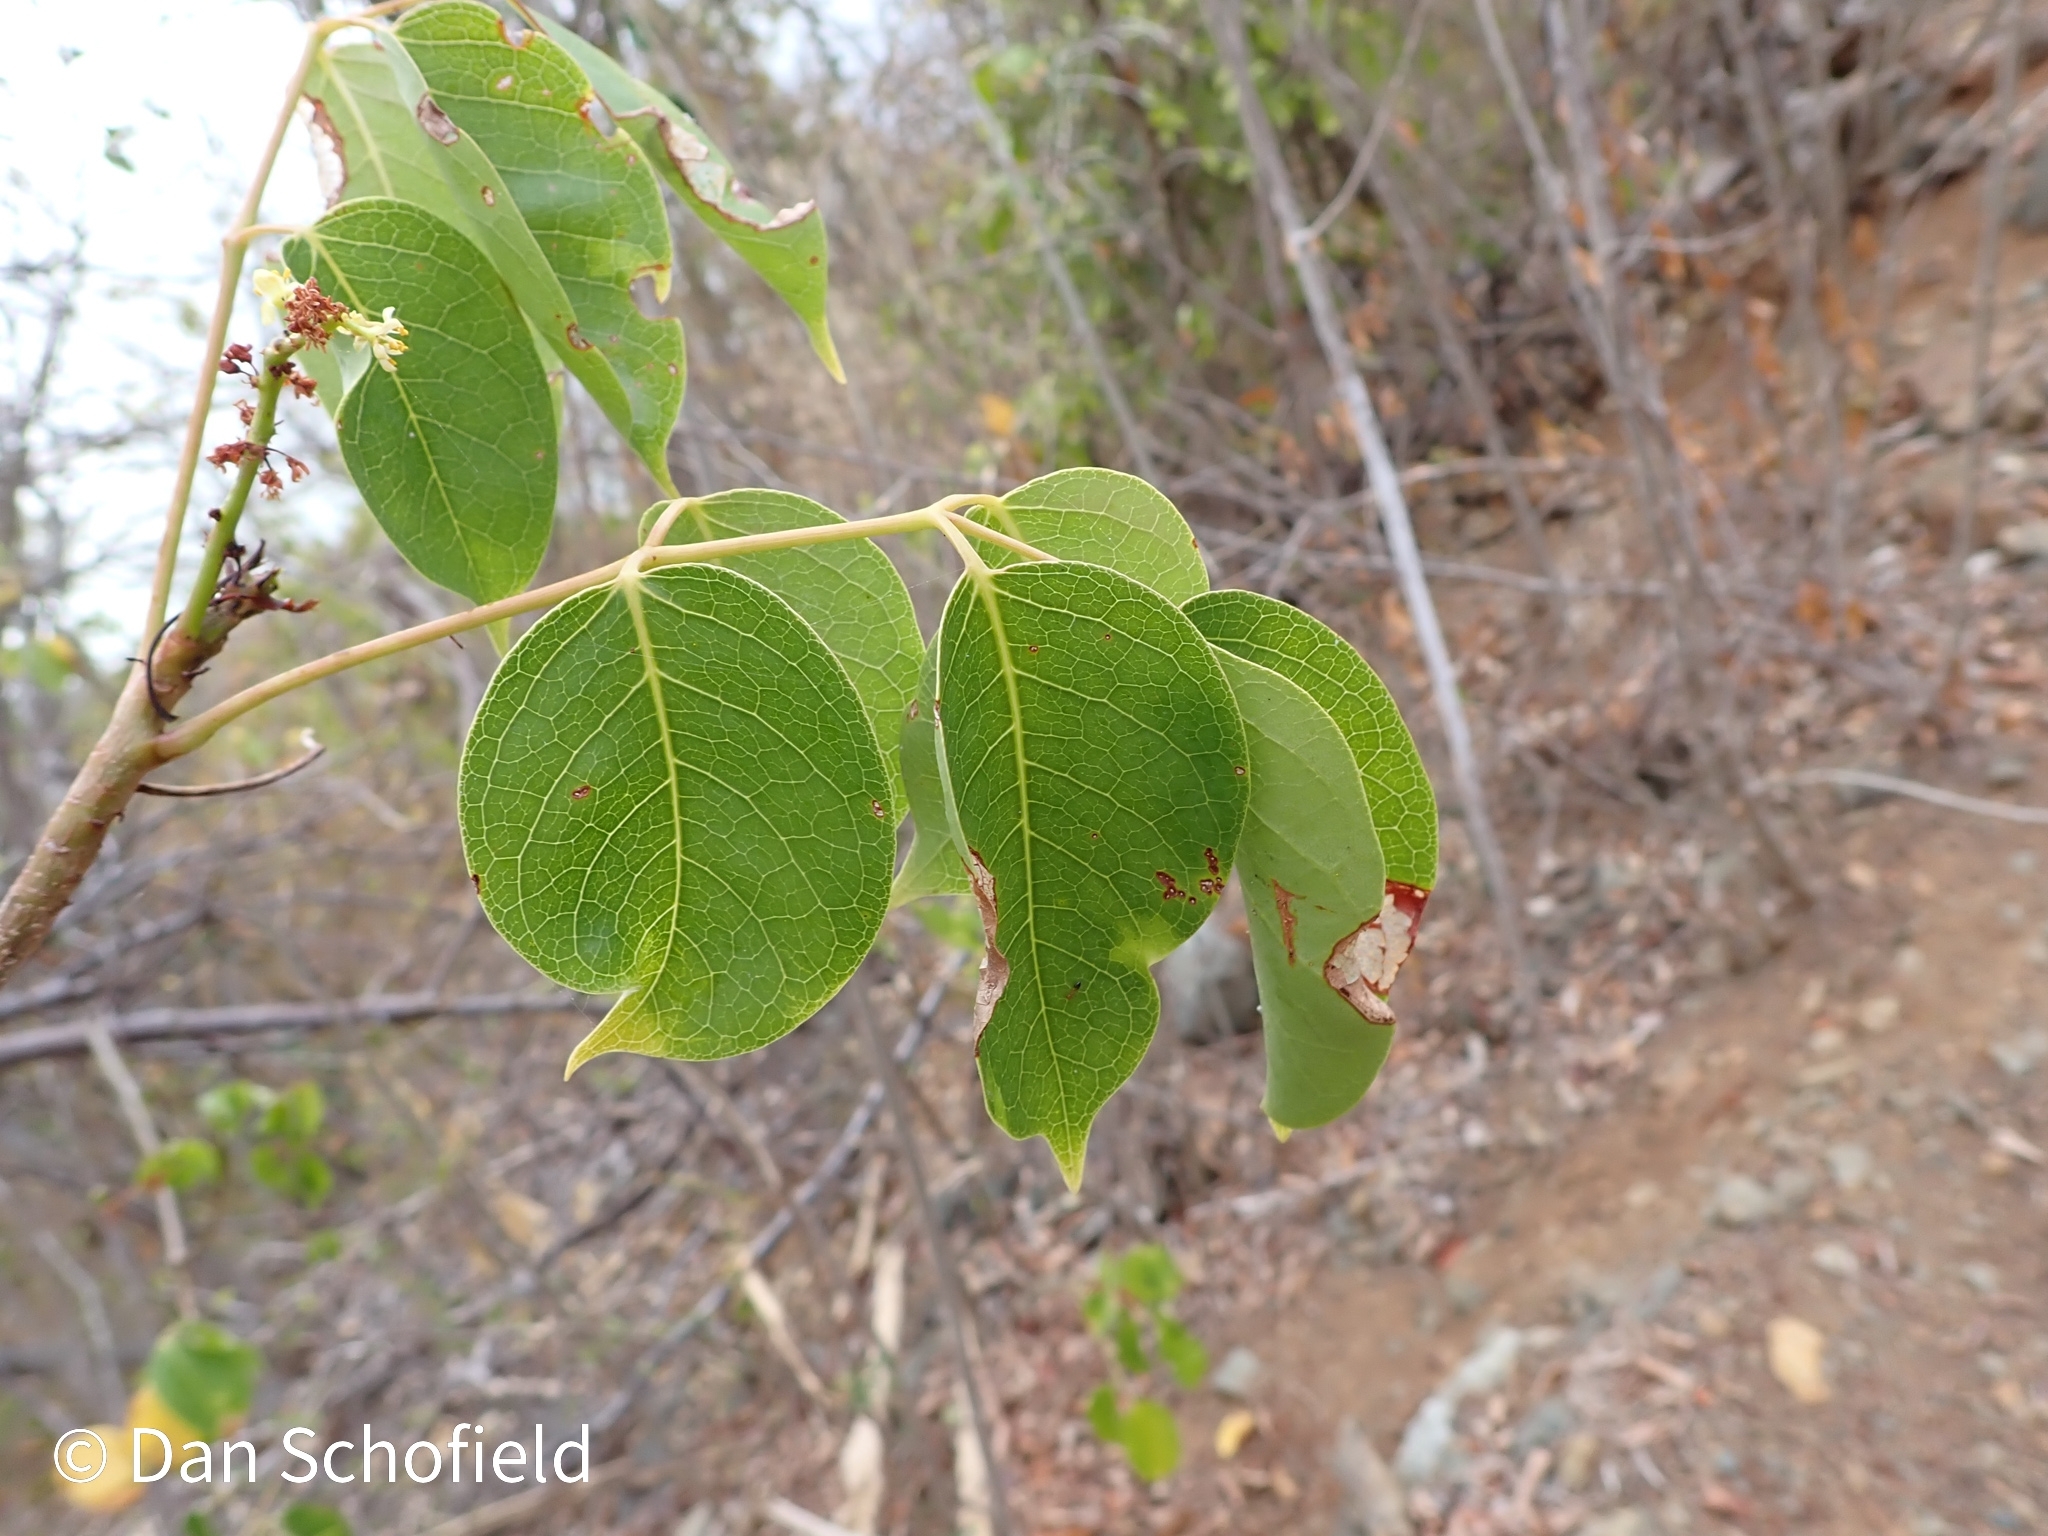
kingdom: Plantae
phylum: Tracheophyta
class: Magnoliopsida
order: Sapindales
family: Burseraceae
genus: Bursera
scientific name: Bursera simaruba
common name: Turpentine tree
